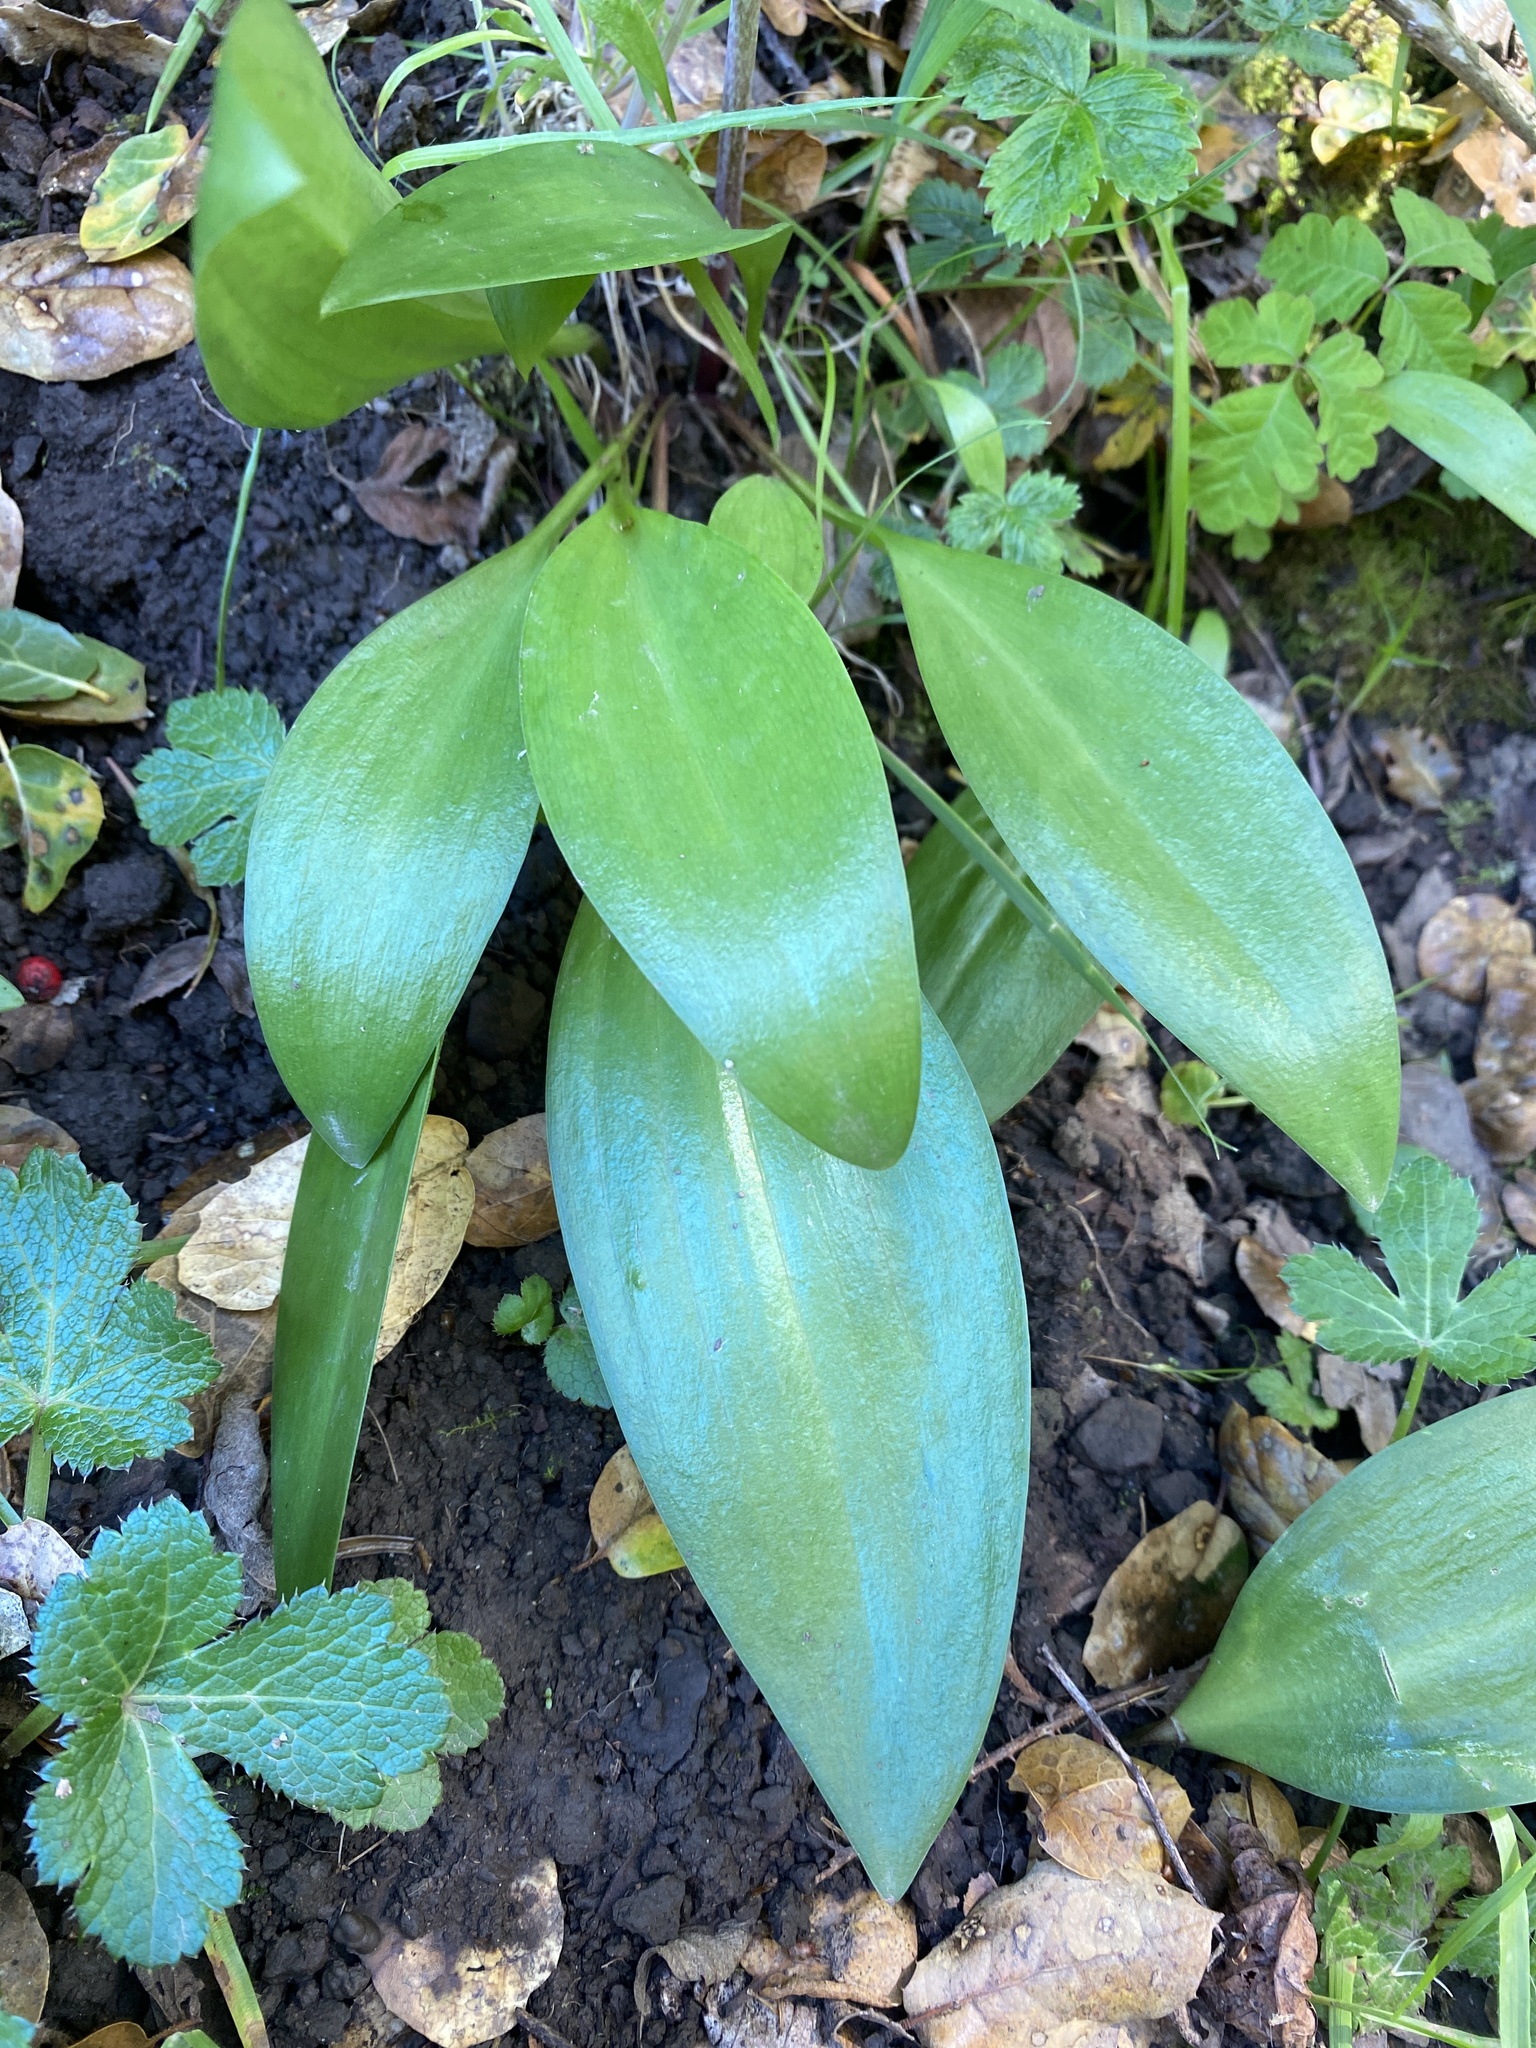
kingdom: Plantae
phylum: Tracheophyta
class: Liliopsida
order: Liliales
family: Liliaceae
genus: Fritillaria
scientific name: Fritillaria affinis
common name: Ojai fritillary
